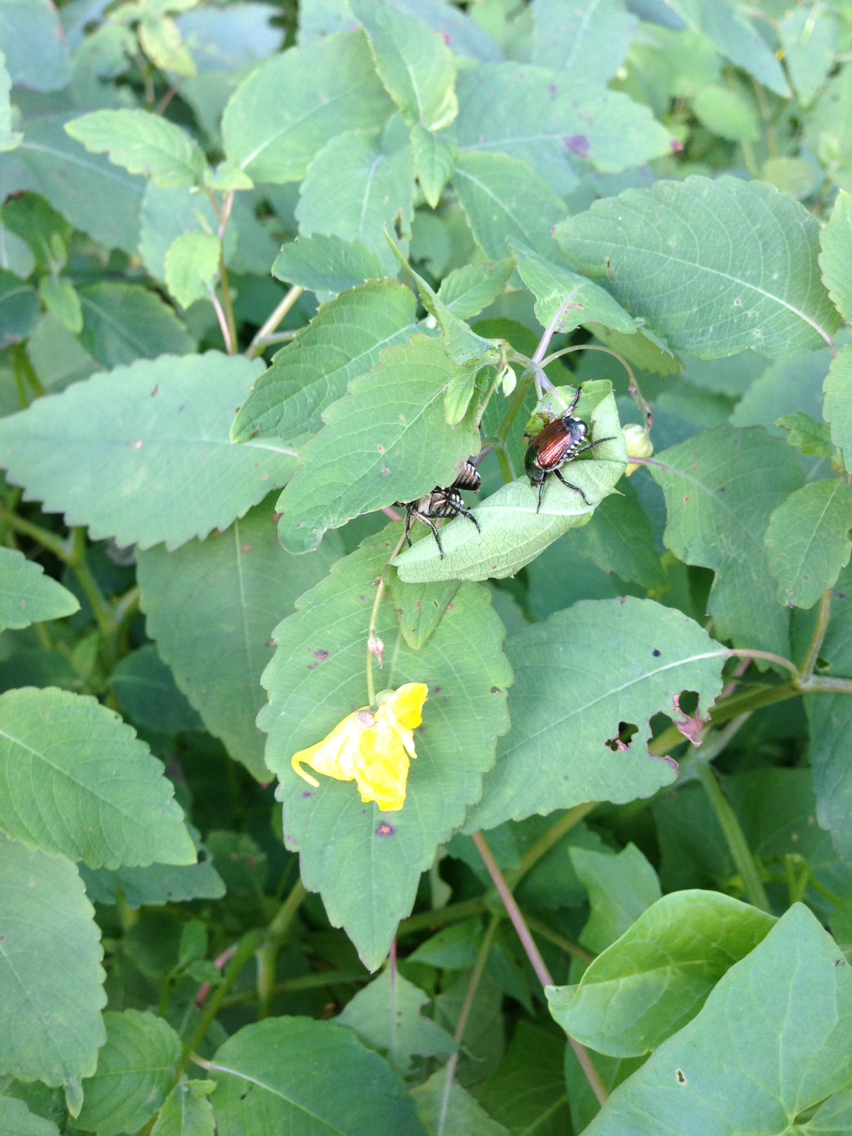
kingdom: Animalia
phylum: Arthropoda
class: Insecta
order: Coleoptera
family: Scarabaeidae
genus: Popillia
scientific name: Popillia japonica
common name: Japanese beetle
